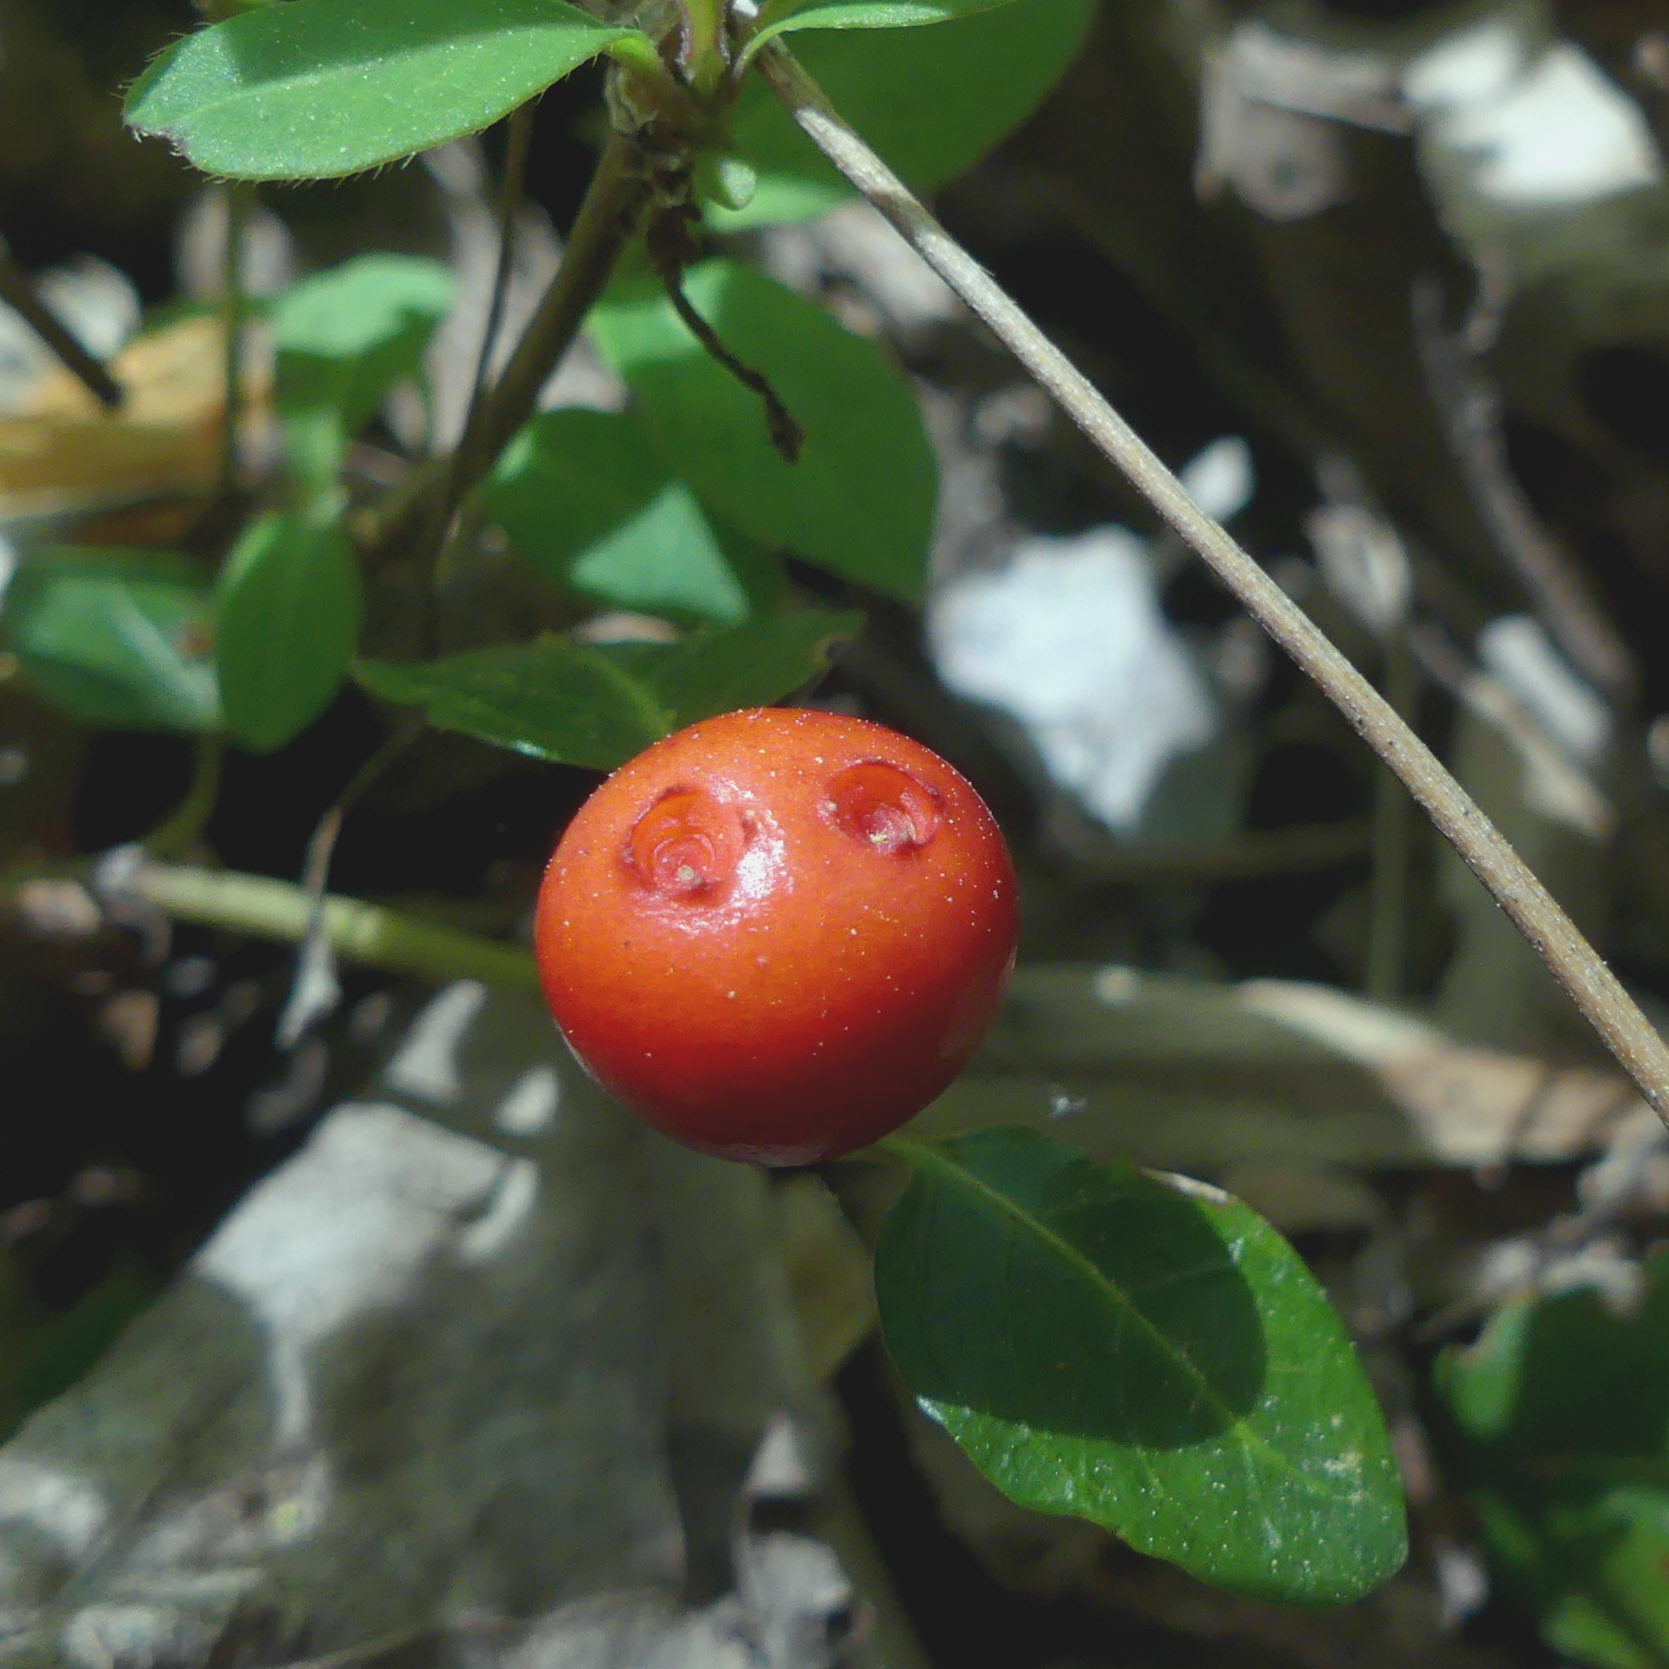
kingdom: Plantae
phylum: Tracheophyta
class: Magnoliopsida
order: Gentianales
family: Rubiaceae
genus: Mitchella
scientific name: Mitchella repens
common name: Partridge-berry
